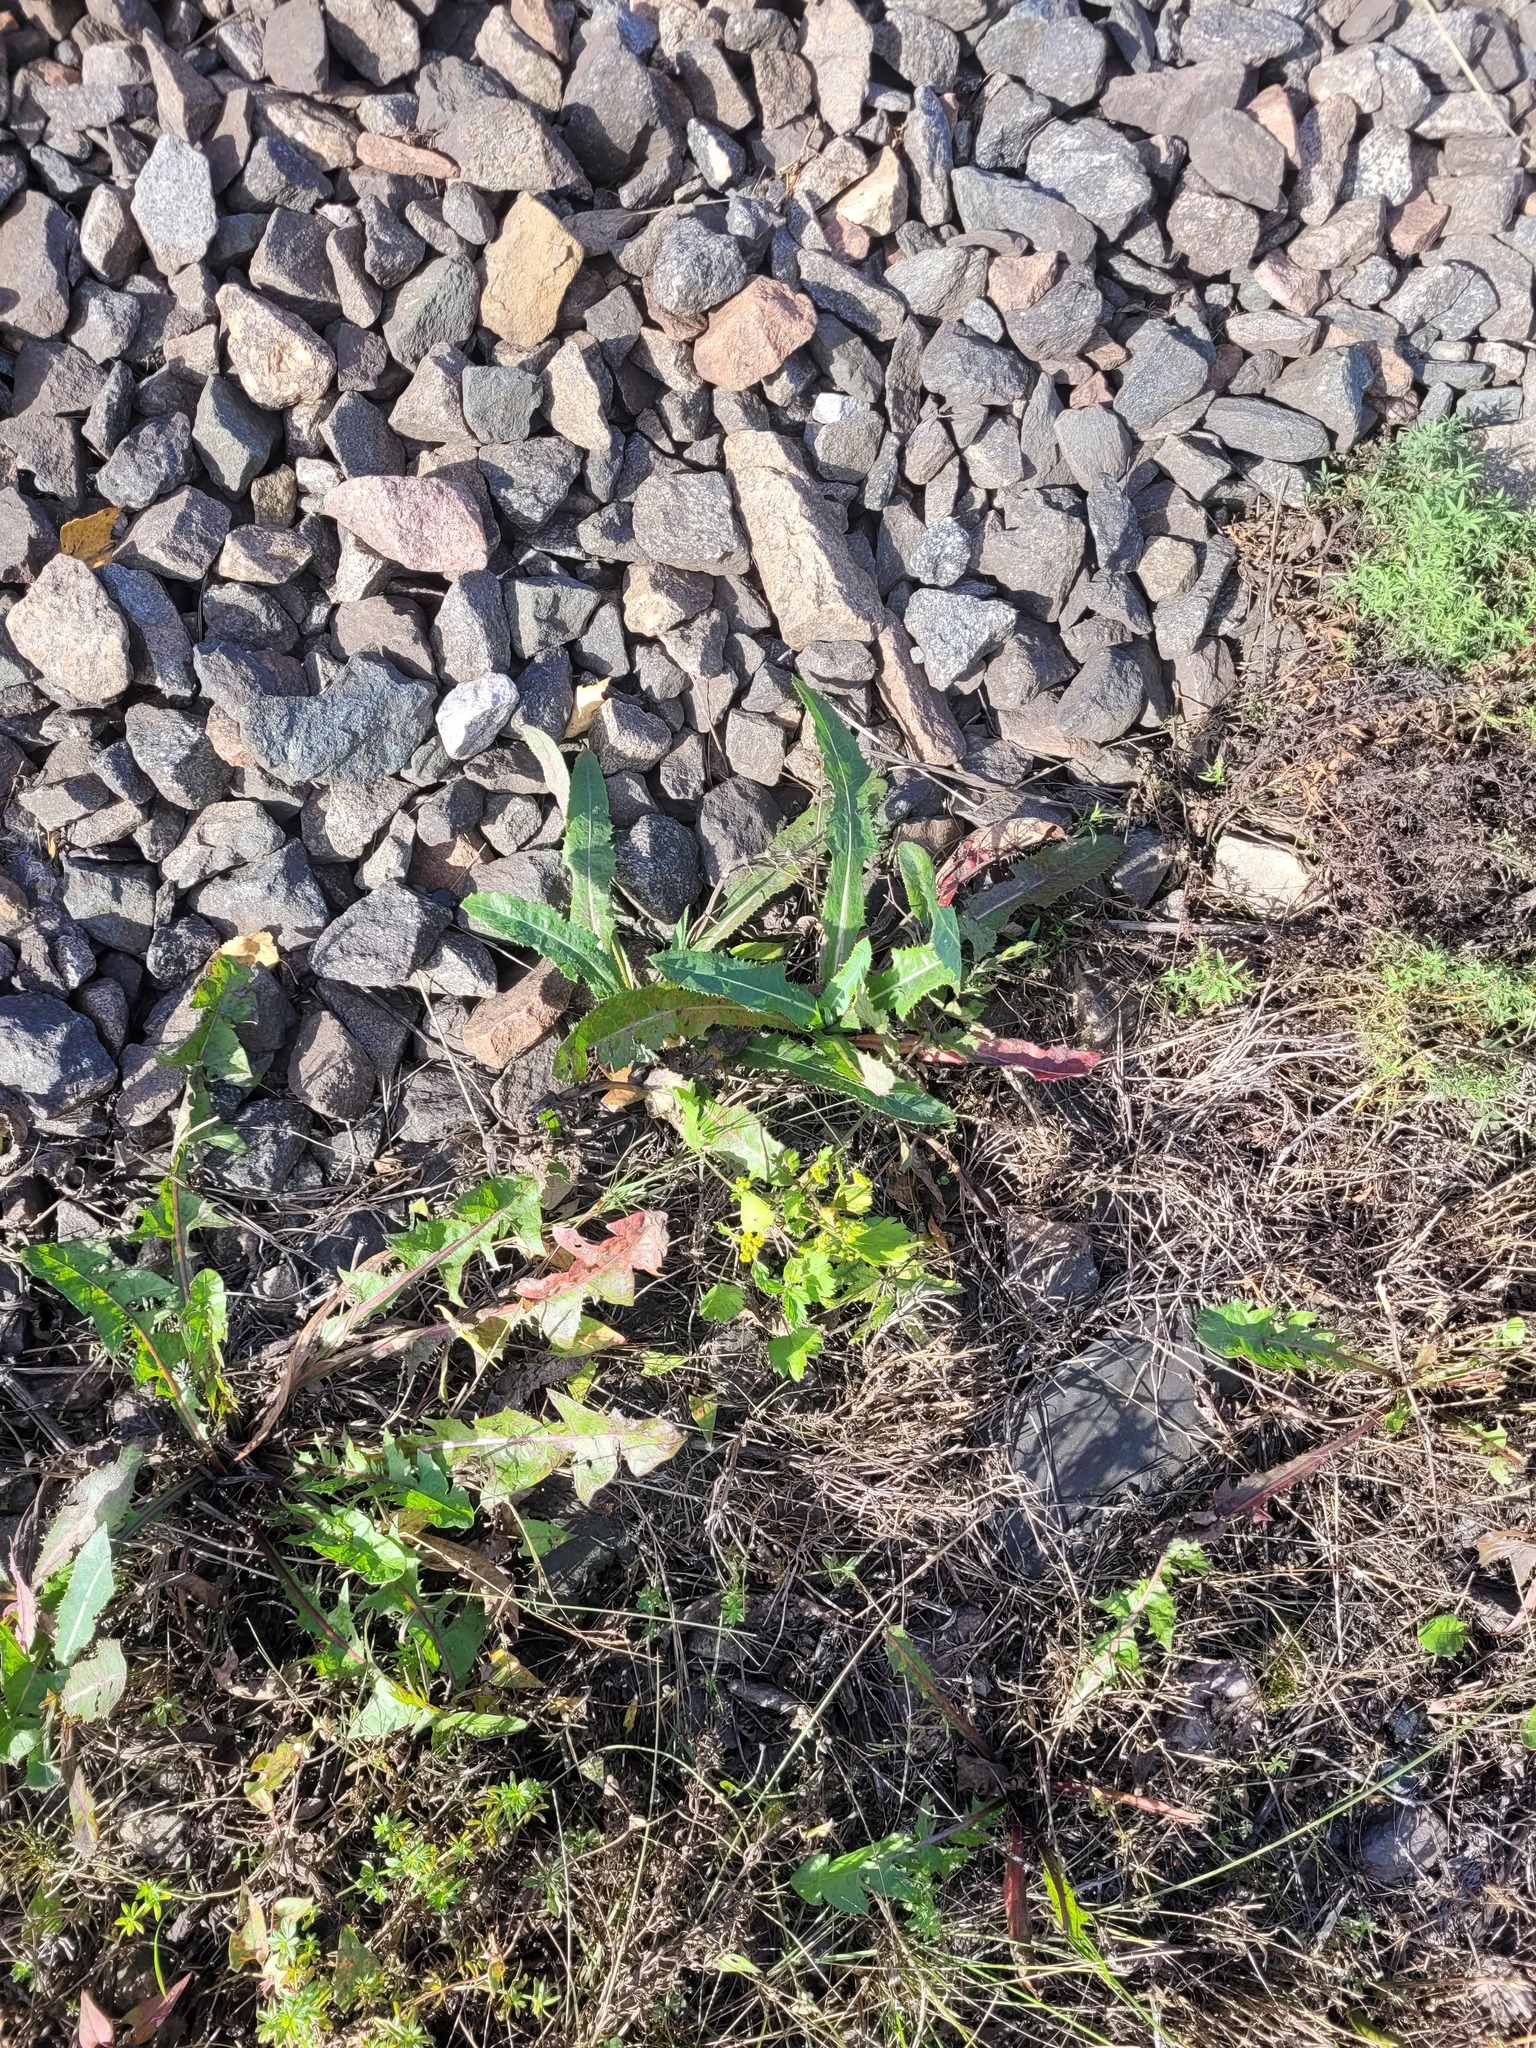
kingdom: Plantae
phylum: Tracheophyta
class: Magnoliopsida
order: Asterales
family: Asteraceae
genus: Sonchus
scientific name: Sonchus arvensis
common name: Perennial sow-thistle
